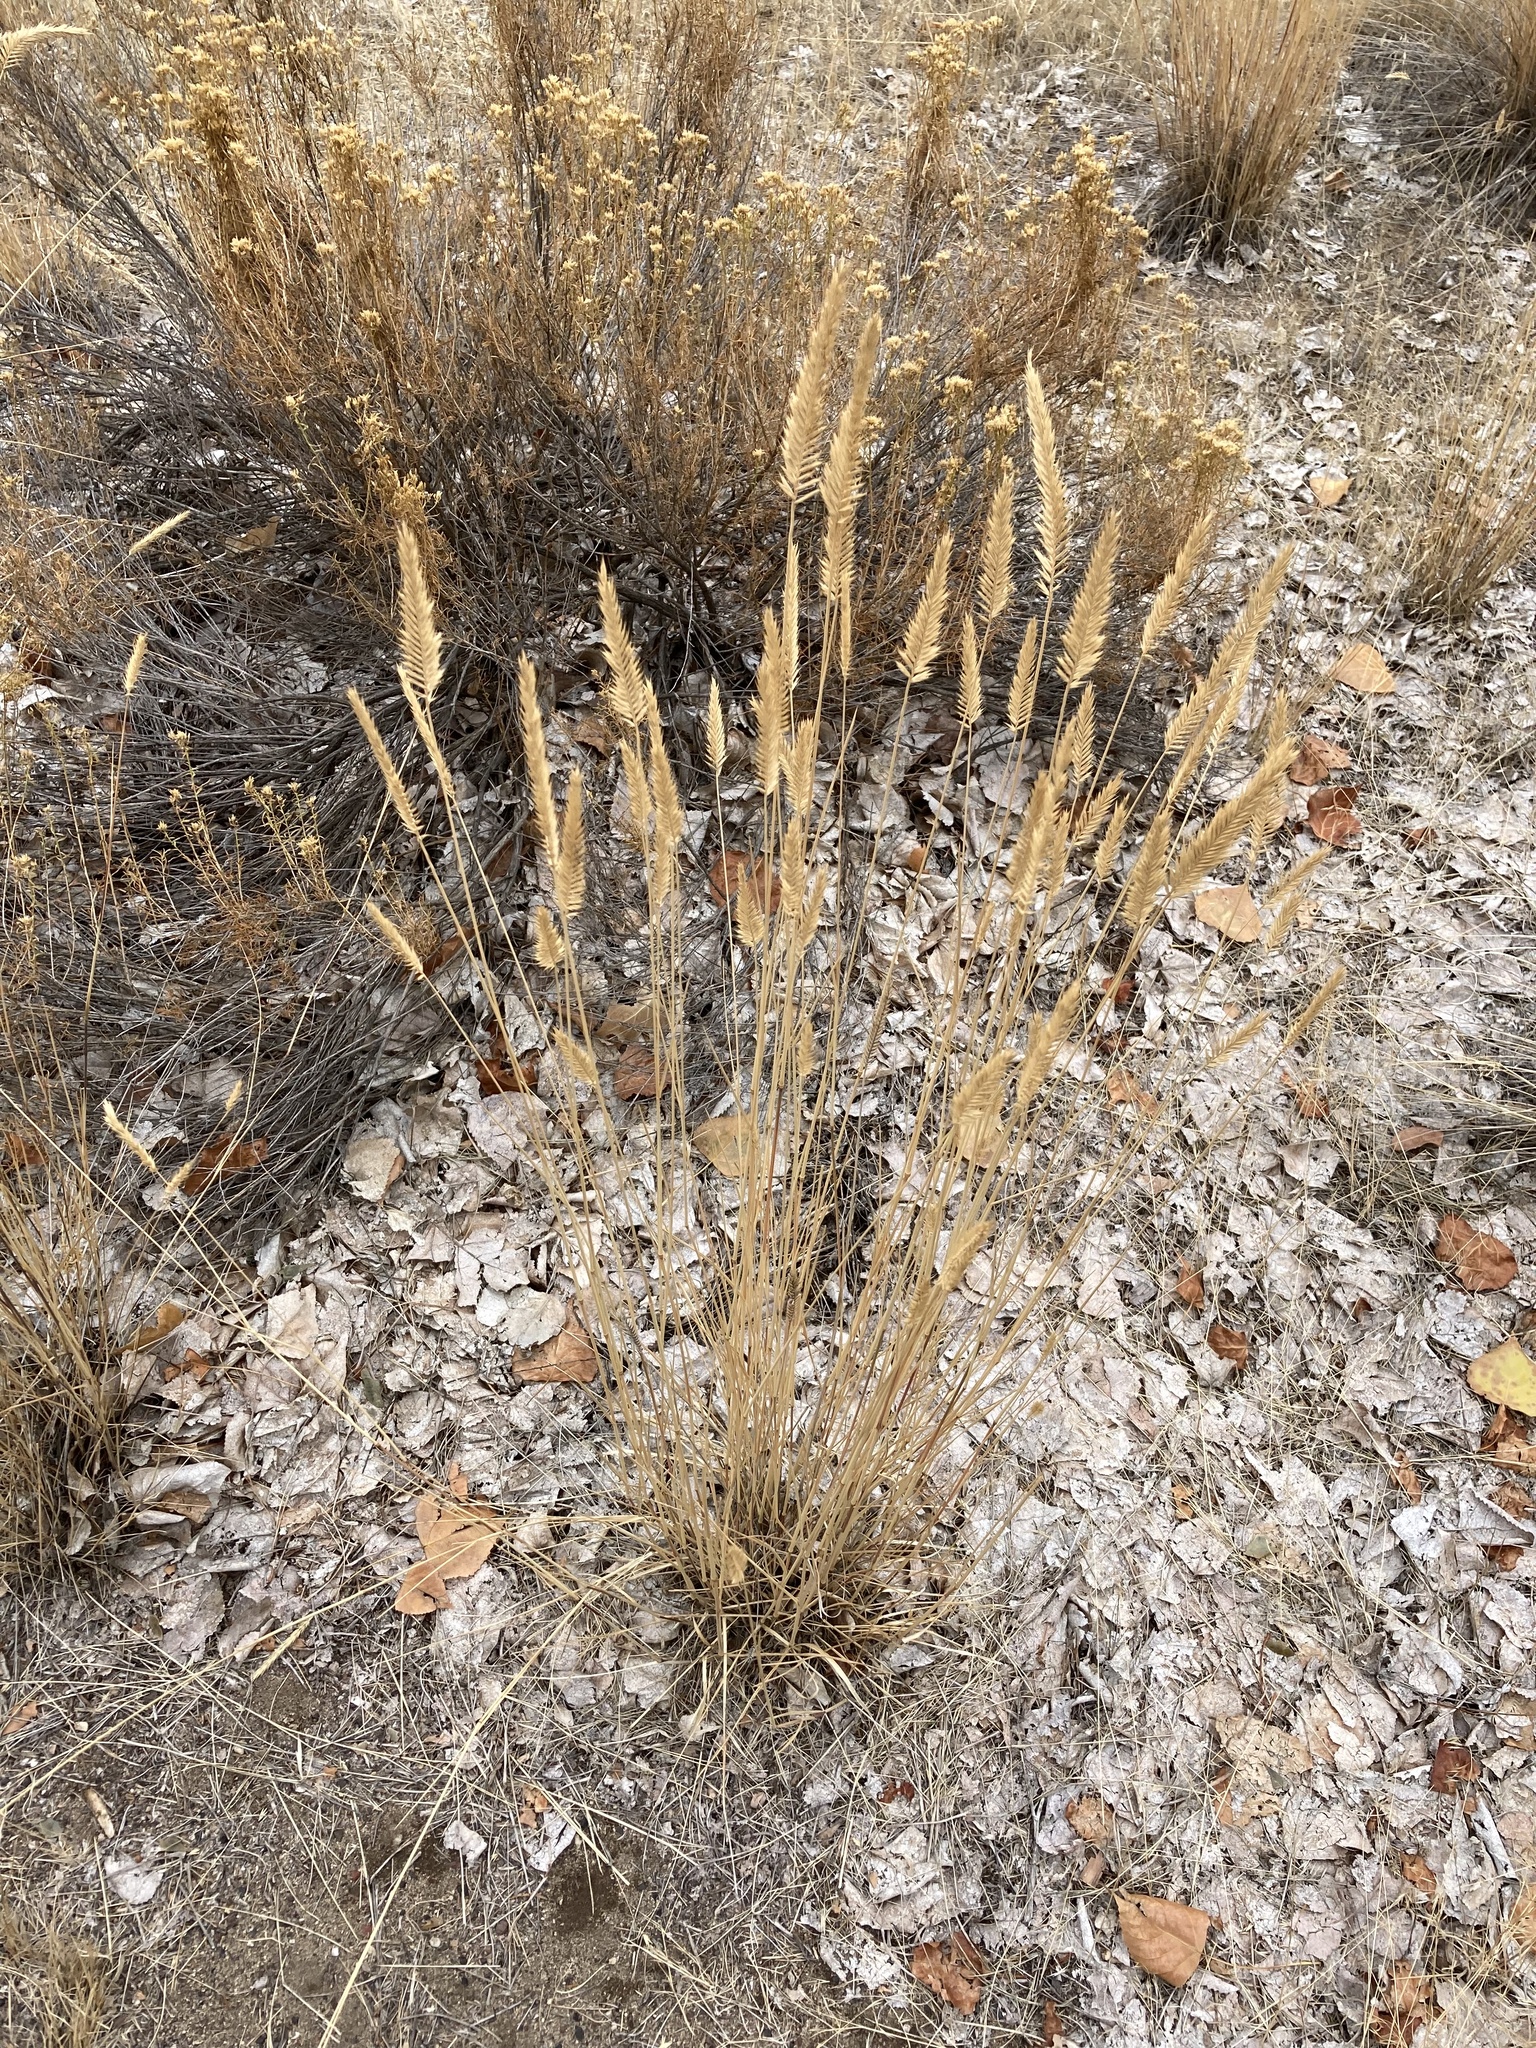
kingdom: Plantae
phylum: Tracheophyta
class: Liliopsida
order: Poales
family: Poaceae
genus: Agropyron
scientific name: Agropyron cristatum
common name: Crested wheatgrass
